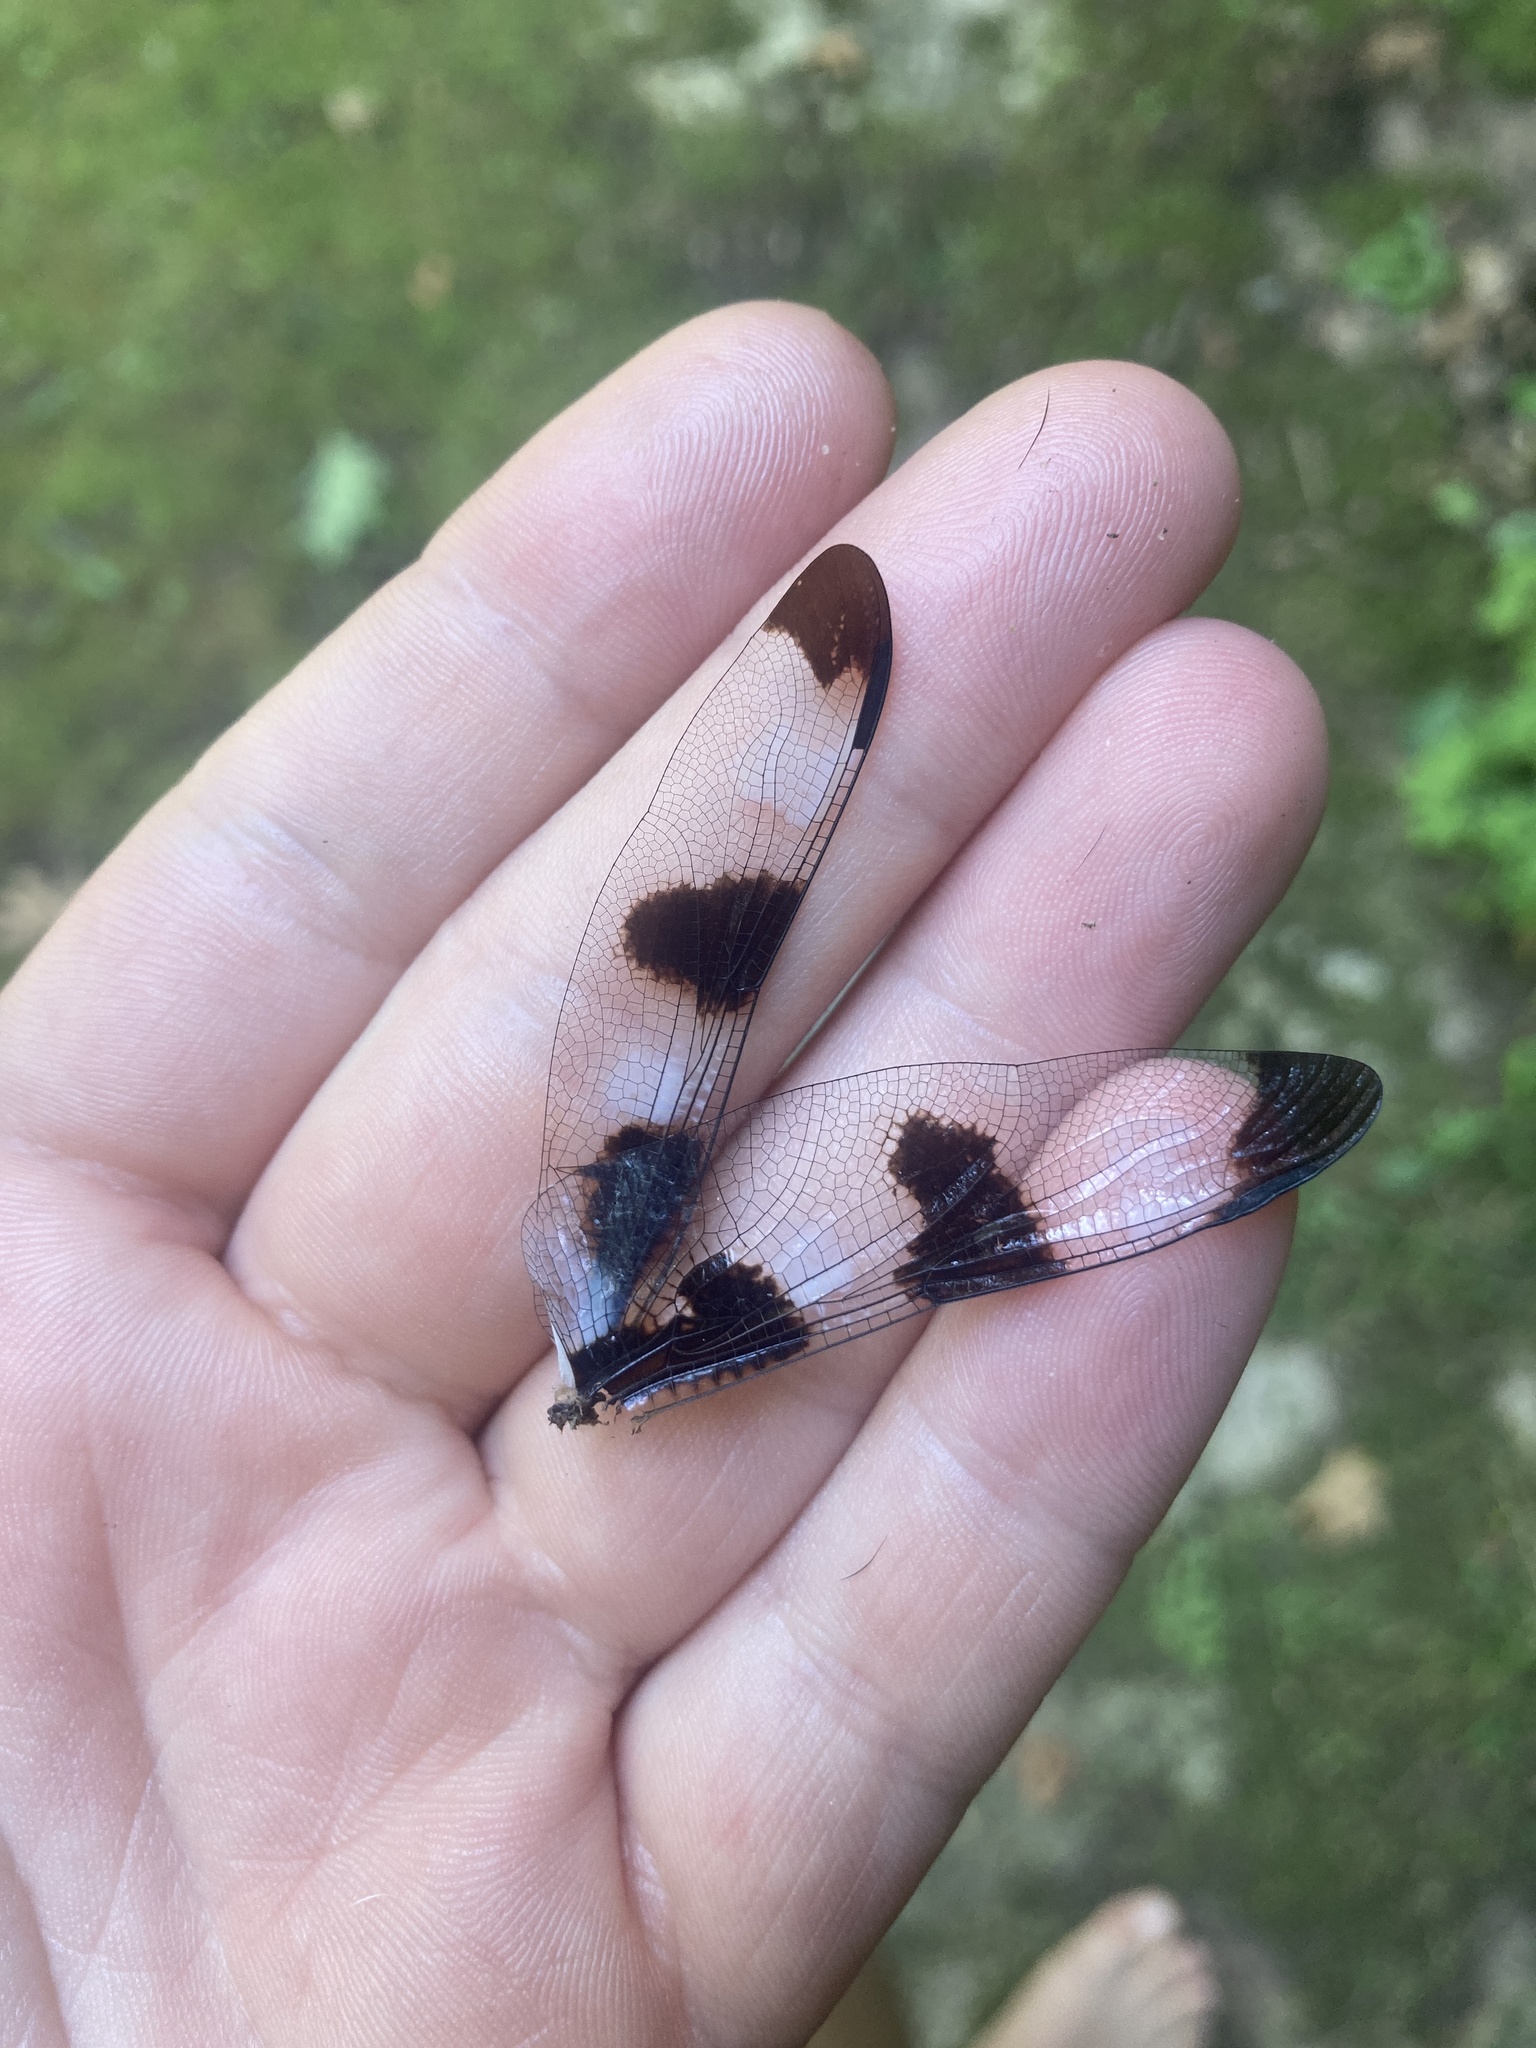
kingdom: Animalia
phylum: Arthropoda
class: Insecta
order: Odonata
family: Libellulidae
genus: Libellula
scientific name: Libellula pulchella
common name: Twelve-spotted skimmer
